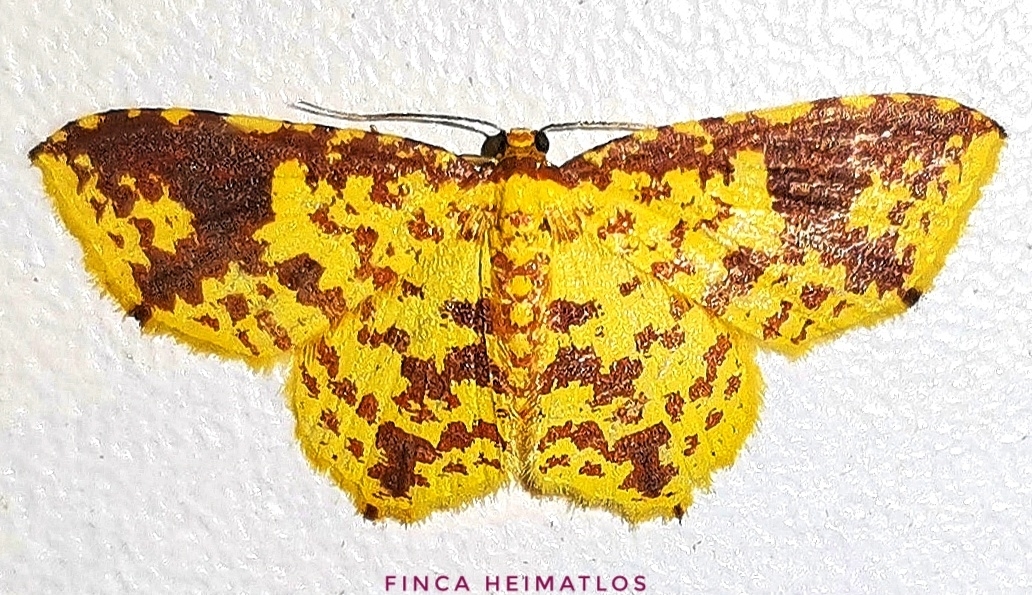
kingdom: Animalia
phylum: Arthropoda
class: Insecta
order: Lepidoptera
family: Geometridae
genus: Eois
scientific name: Eois heliadaria
